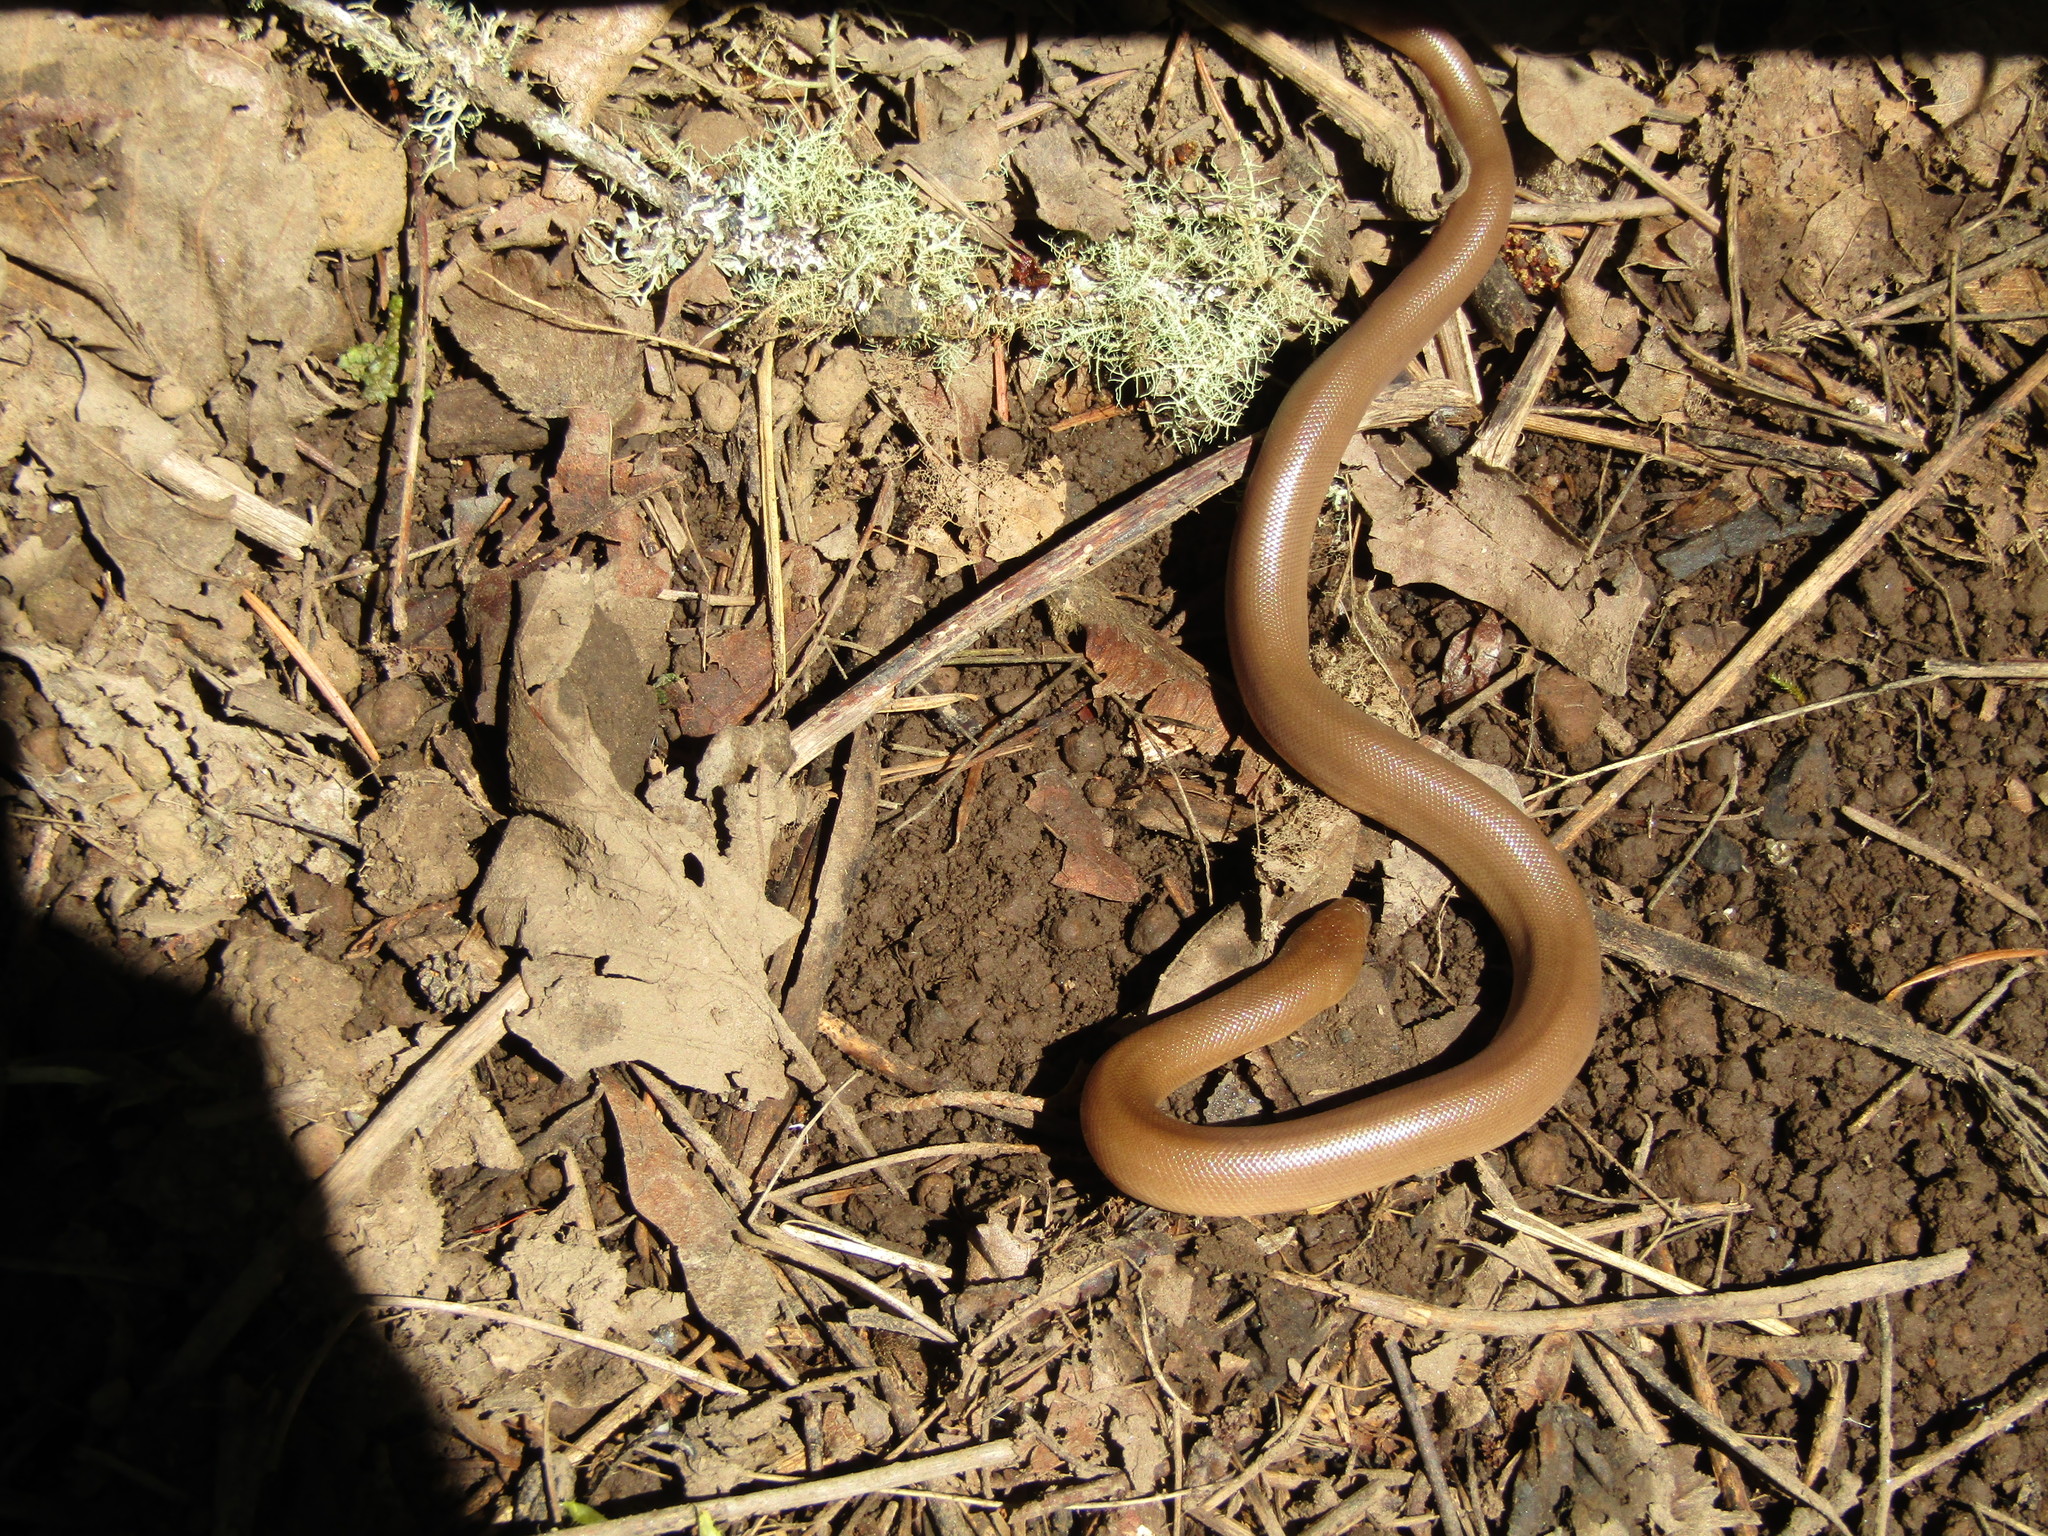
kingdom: Animalia
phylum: Chordata
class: Squamata
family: Boidae
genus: Charina
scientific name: Charina bottae
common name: Northern rubber boa
